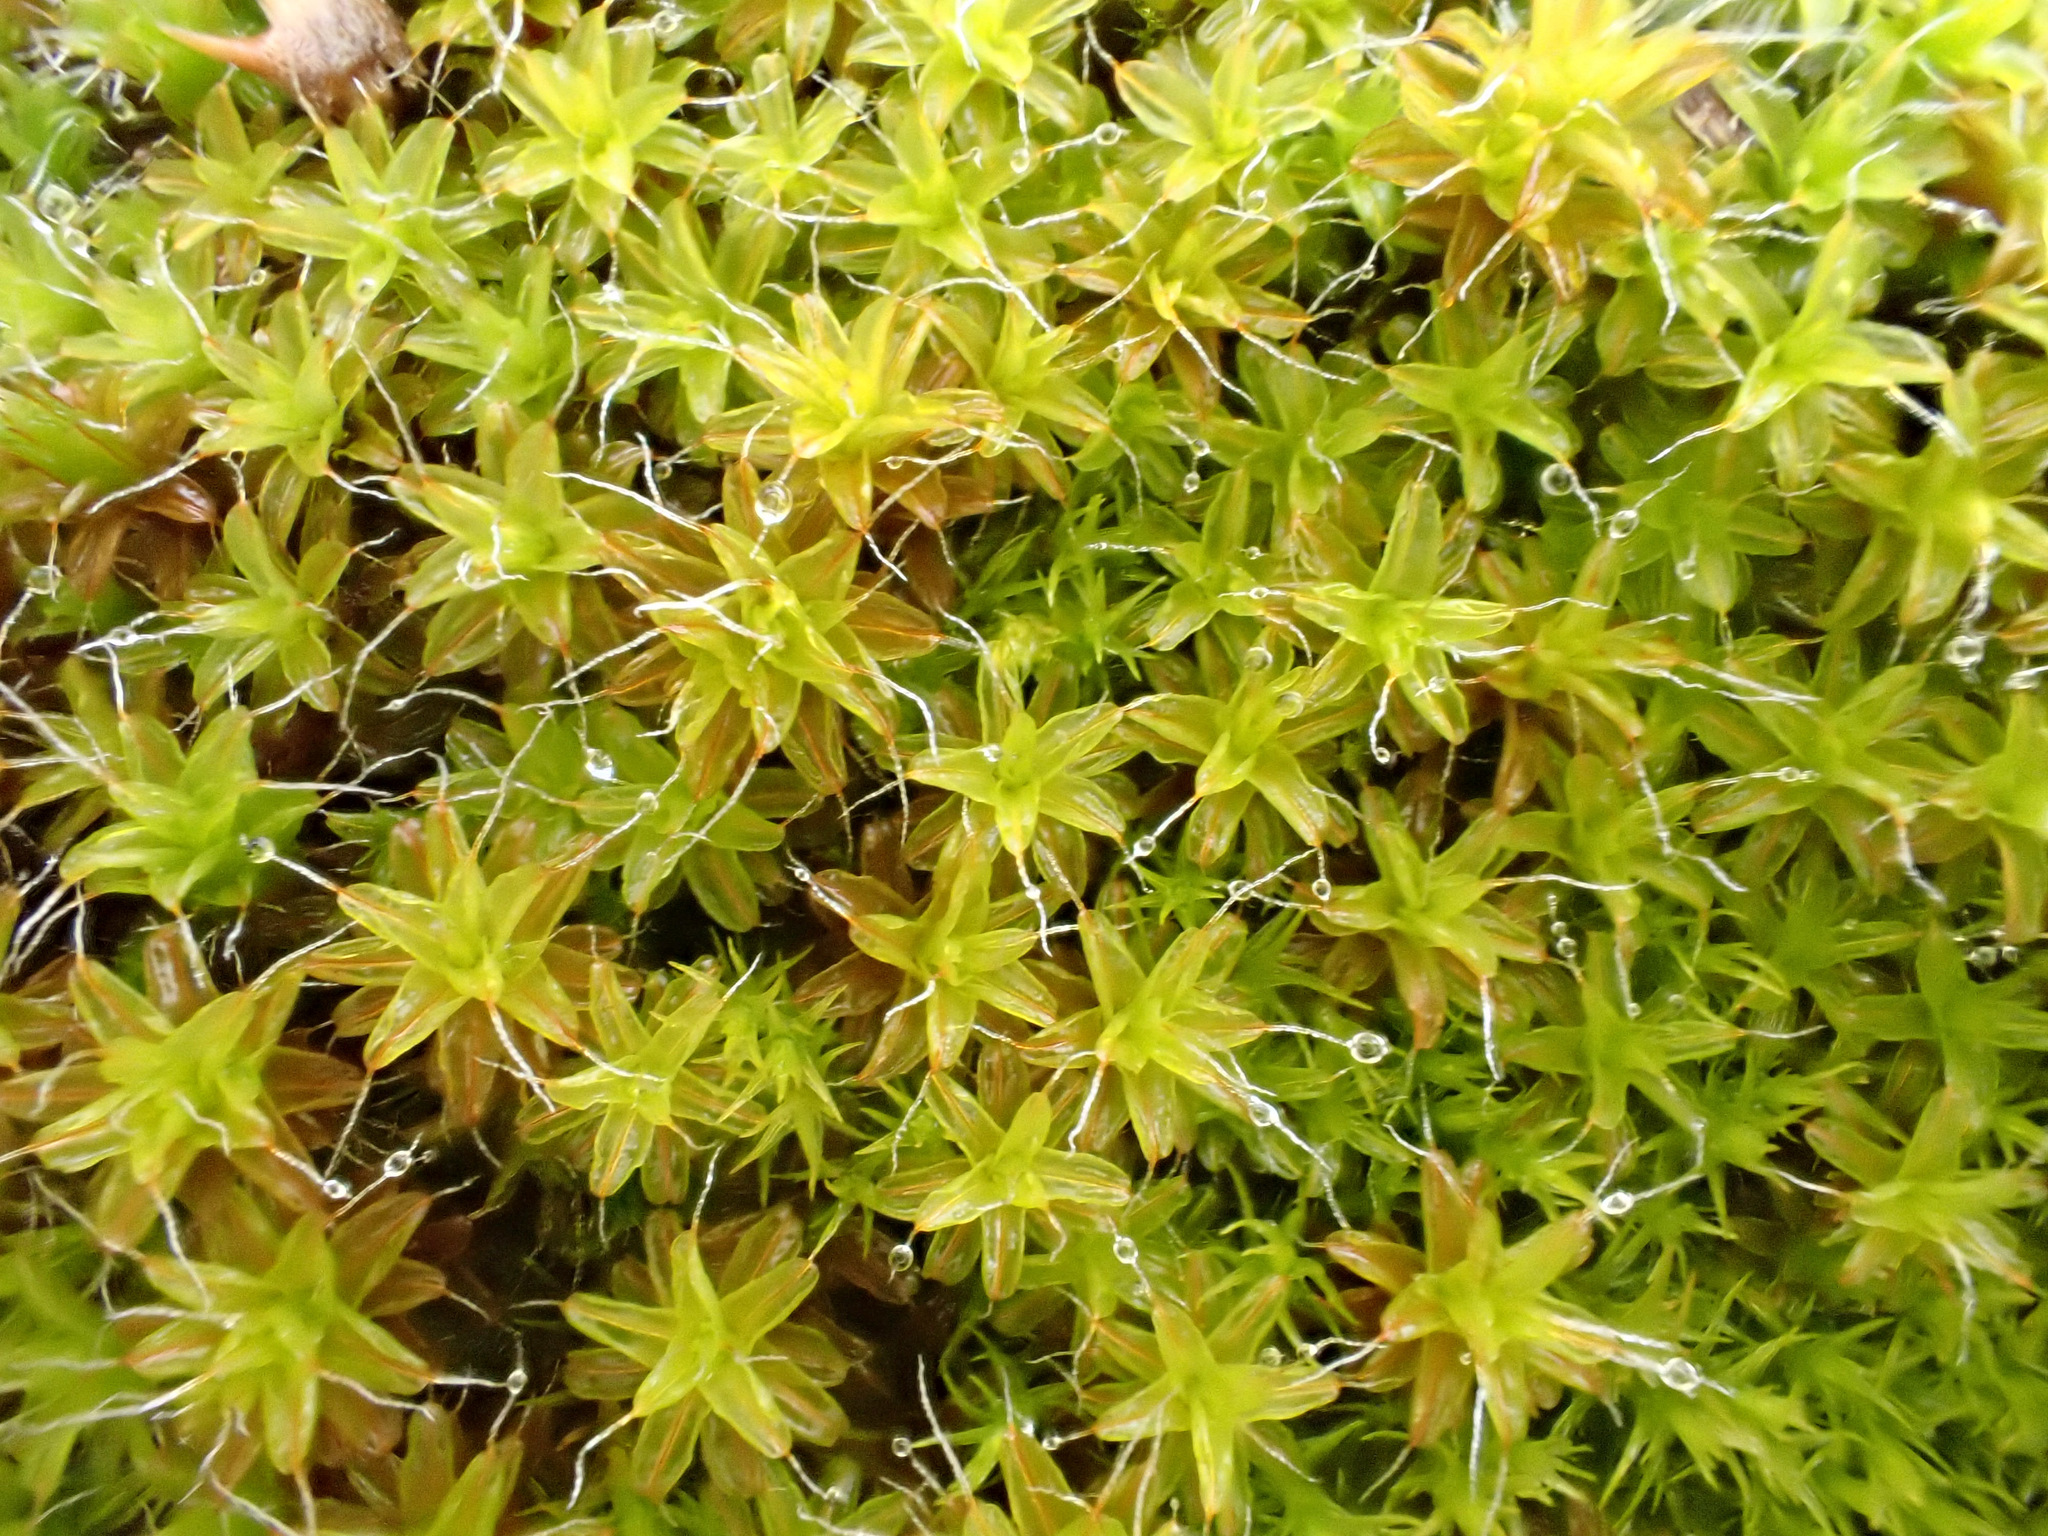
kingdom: Plantae
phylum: Bryophyta
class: Bryopsida
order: Pottiales
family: Pottiaceae
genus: Syntrichia
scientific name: Syntrichia ruralis
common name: Sidewalk screw moss
